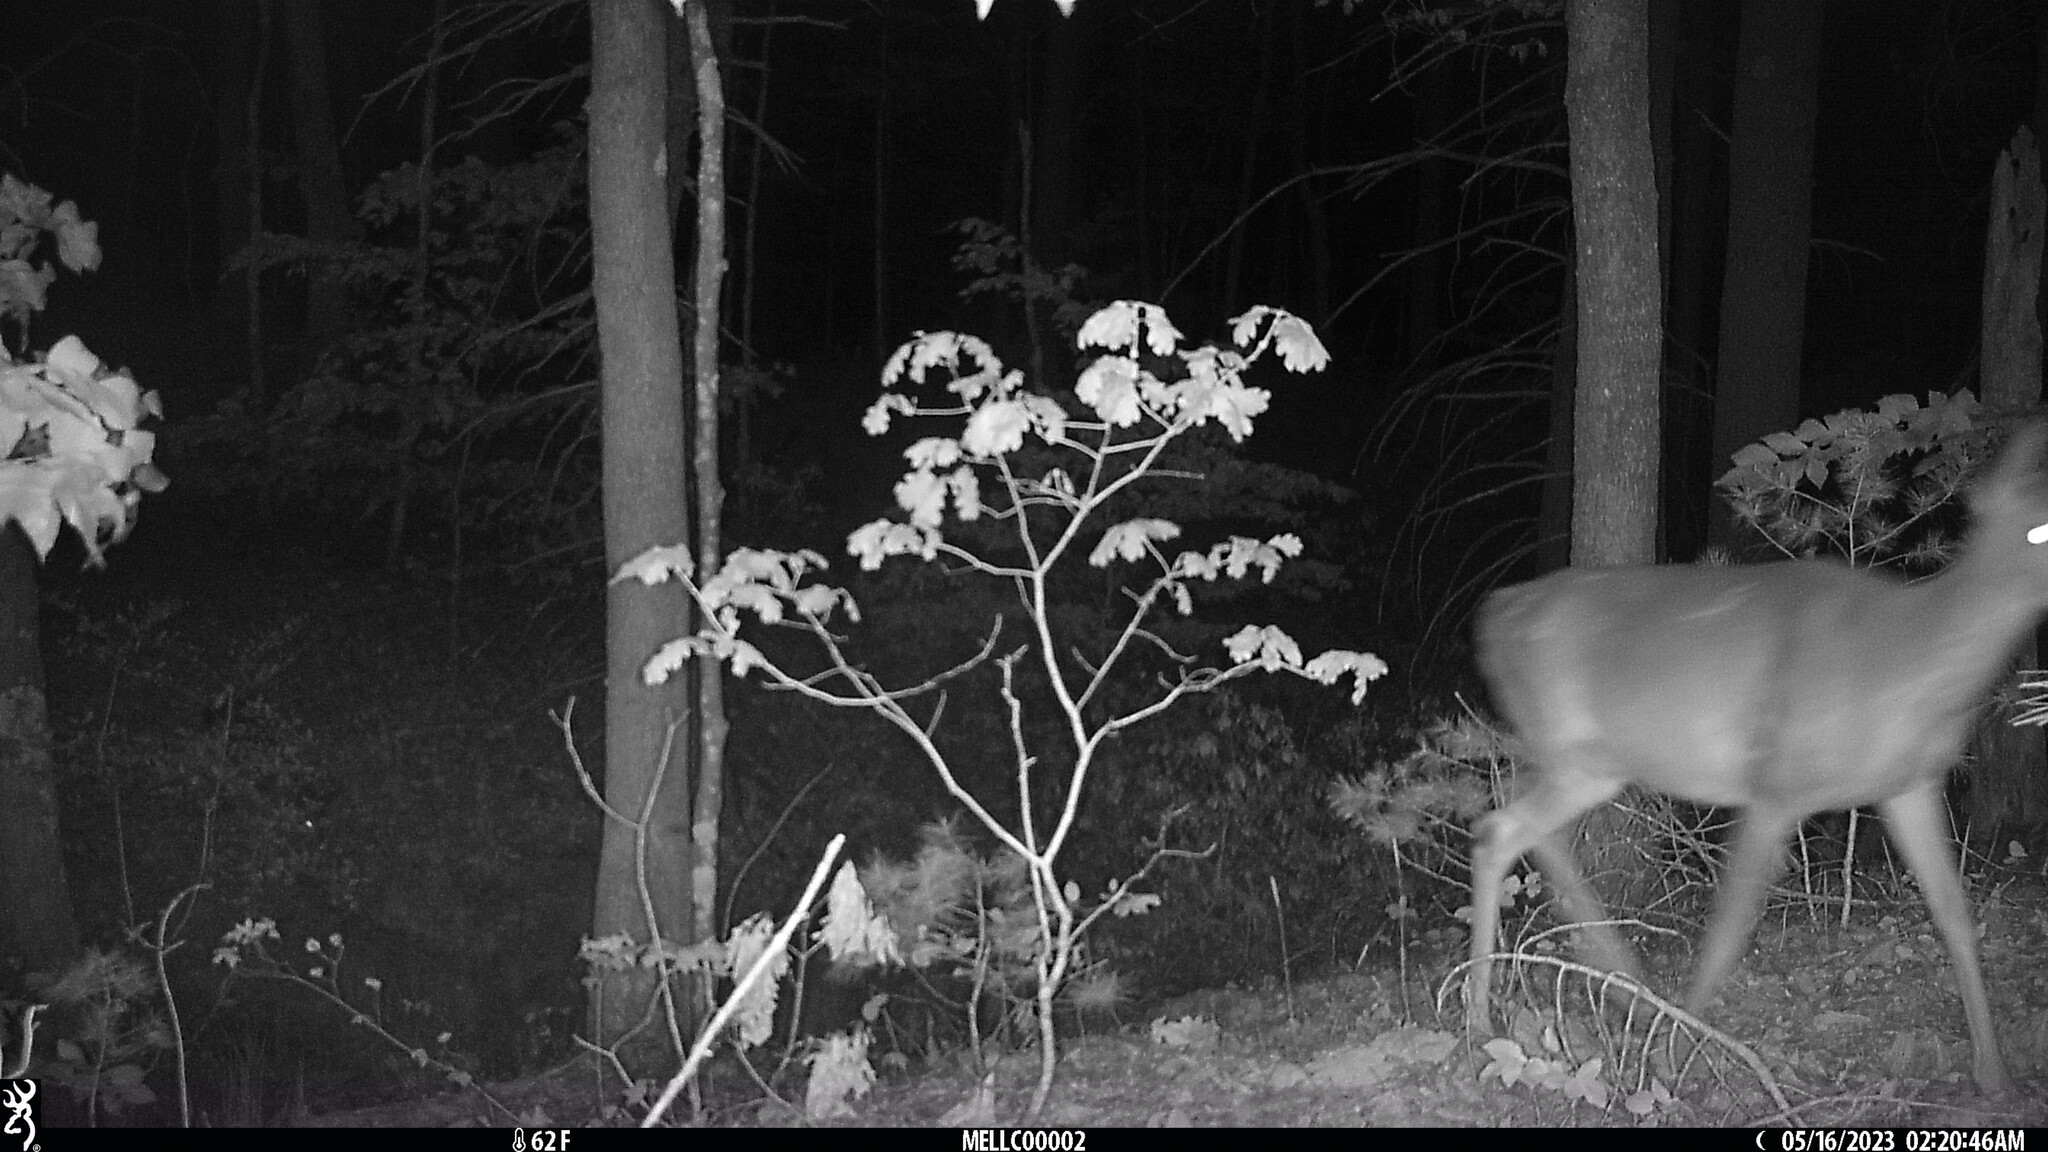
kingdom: Animalia
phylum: Chordata
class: Mammalia
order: Artiodactyla
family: Cervidae
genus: Odocoileus
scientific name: Odocoileus virginianus
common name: White-tailed deer
